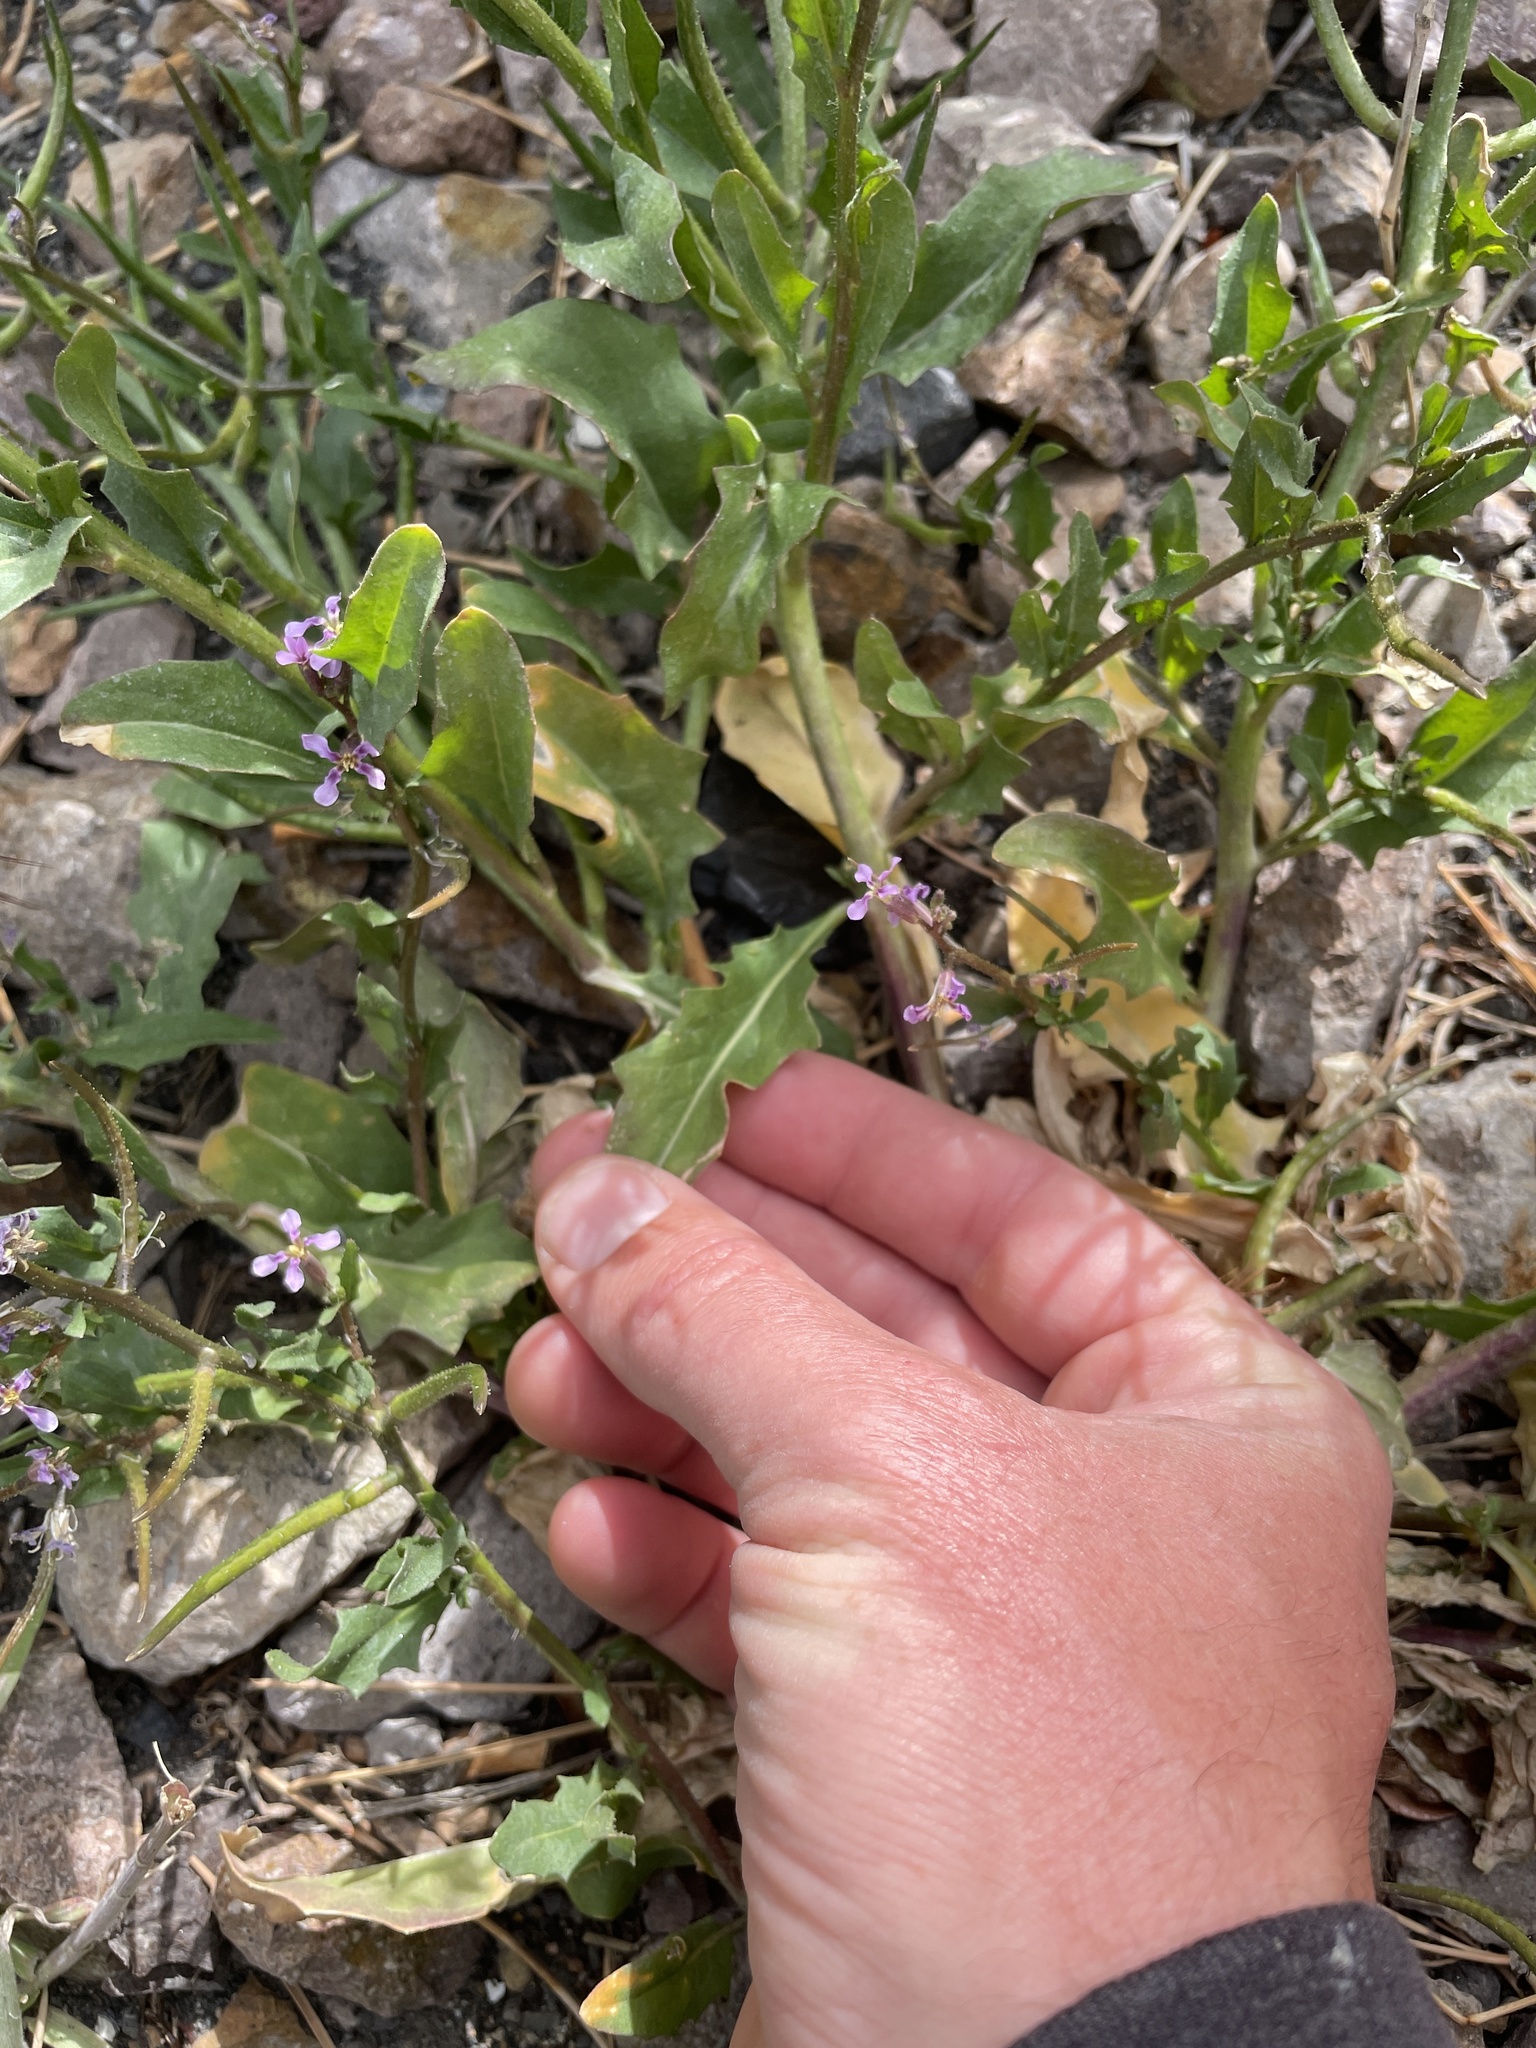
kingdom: Plantae
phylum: Tracheophyta
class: Magnoliopsida
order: Brassicales
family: Brassicaceae
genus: Chorispora
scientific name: Chorispora tenella
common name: Crossflower
